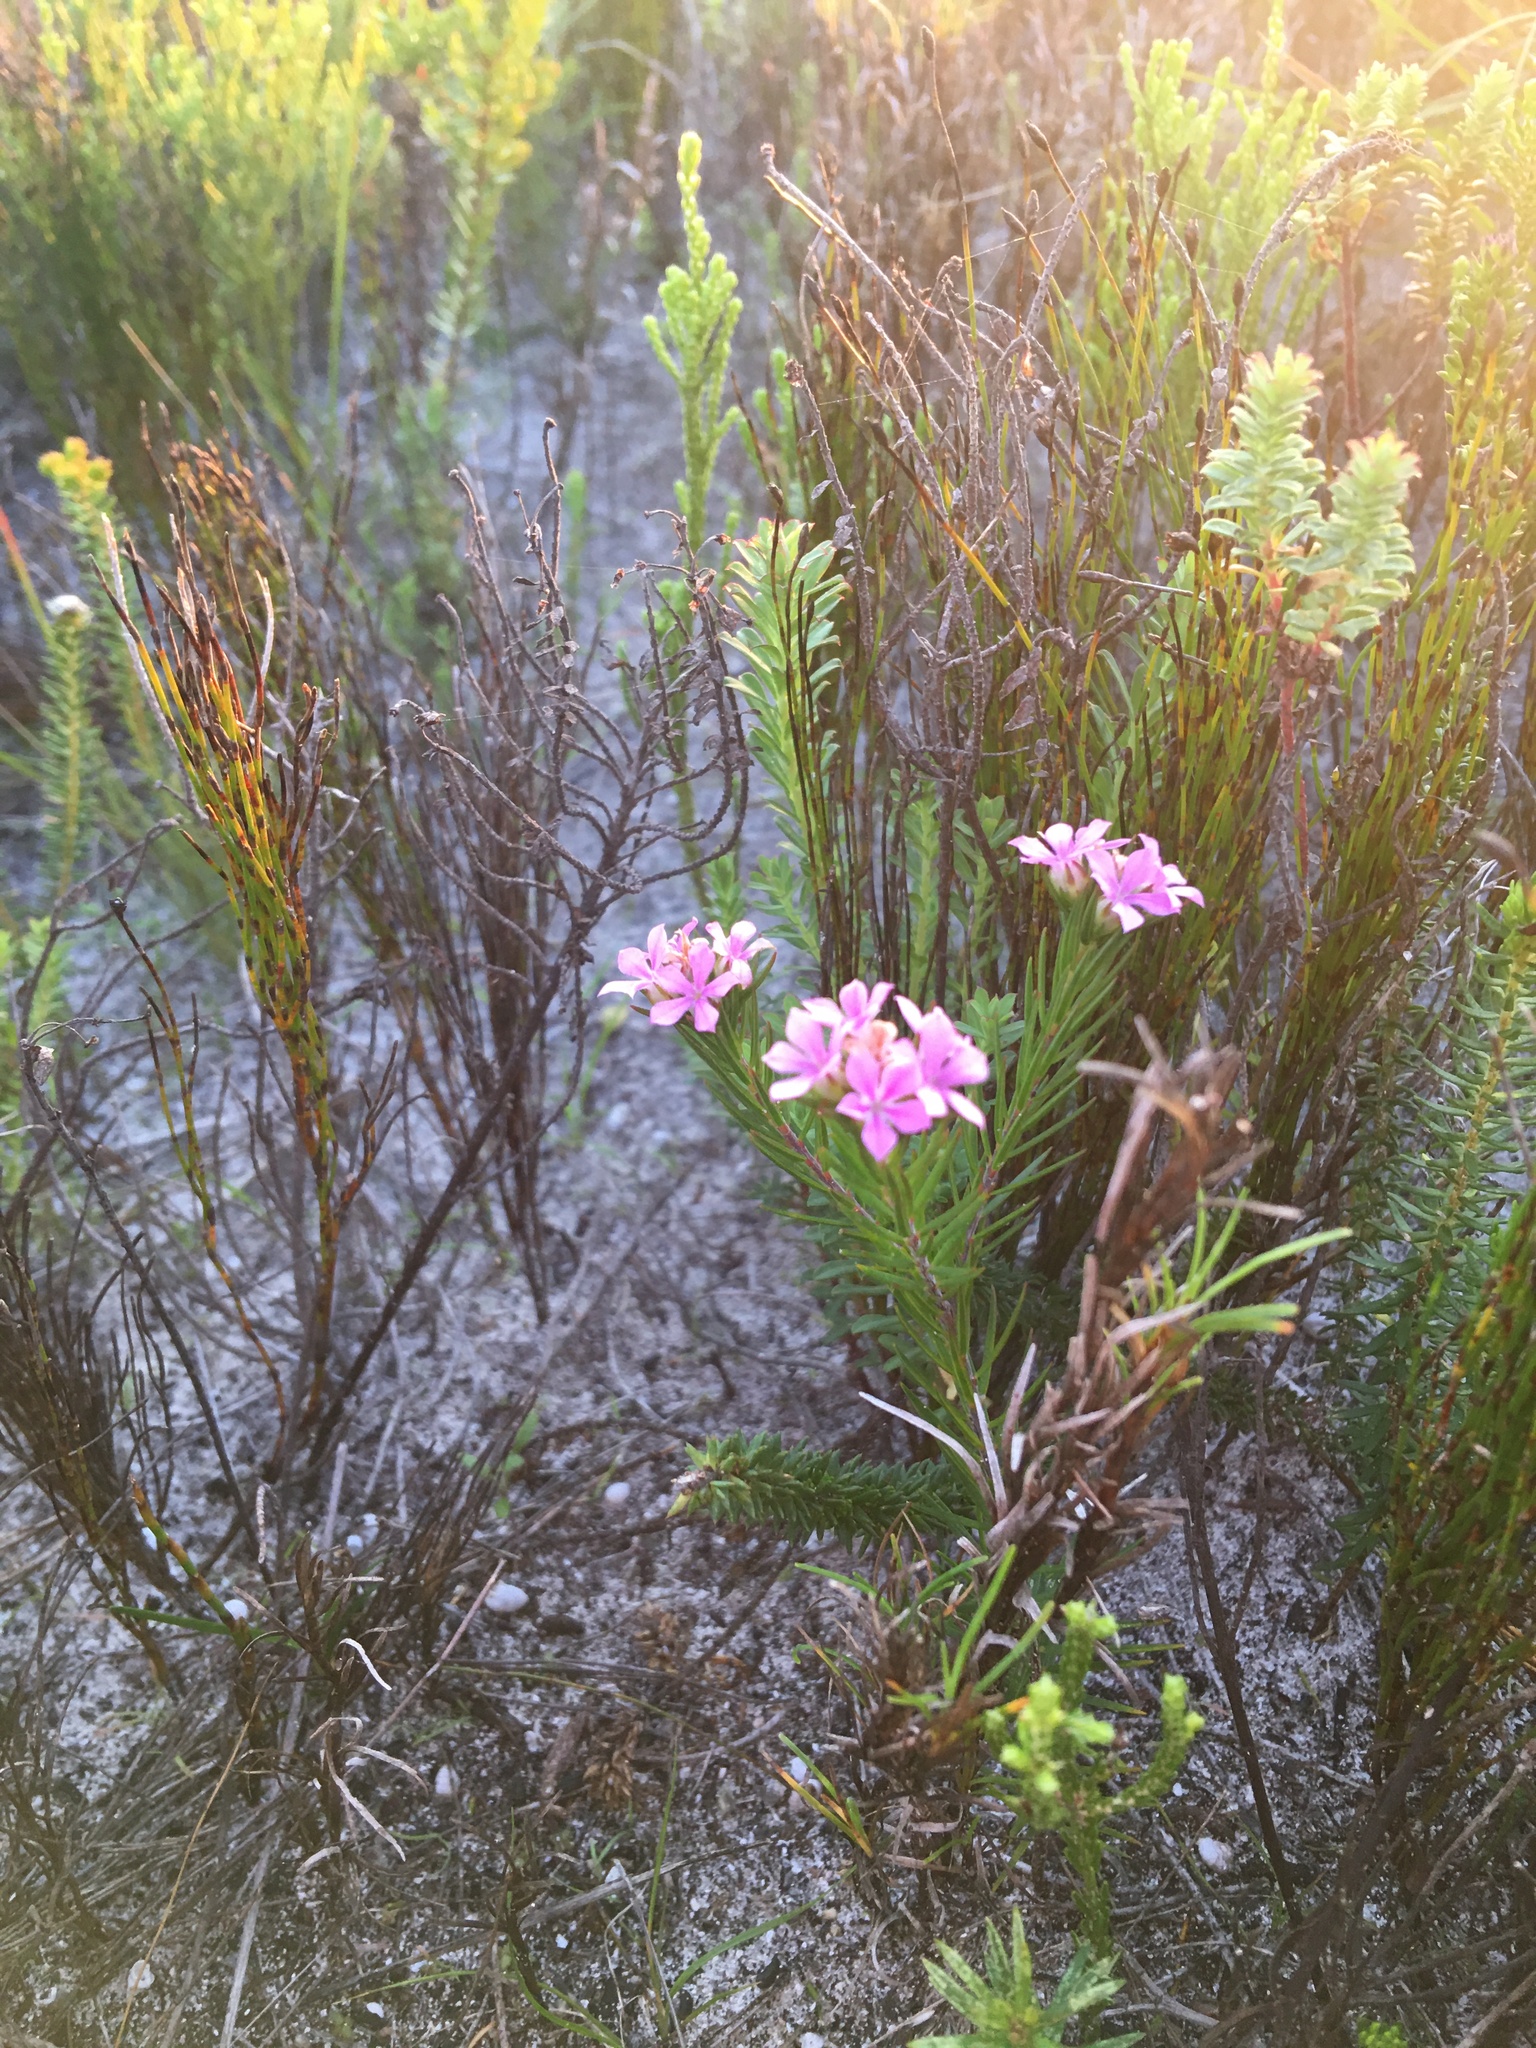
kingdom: Plantae
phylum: Tracheophyta
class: Magnoliopsida
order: Sapindales
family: Rutaceae
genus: Acmadenia
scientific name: Acmadenia obtusata
